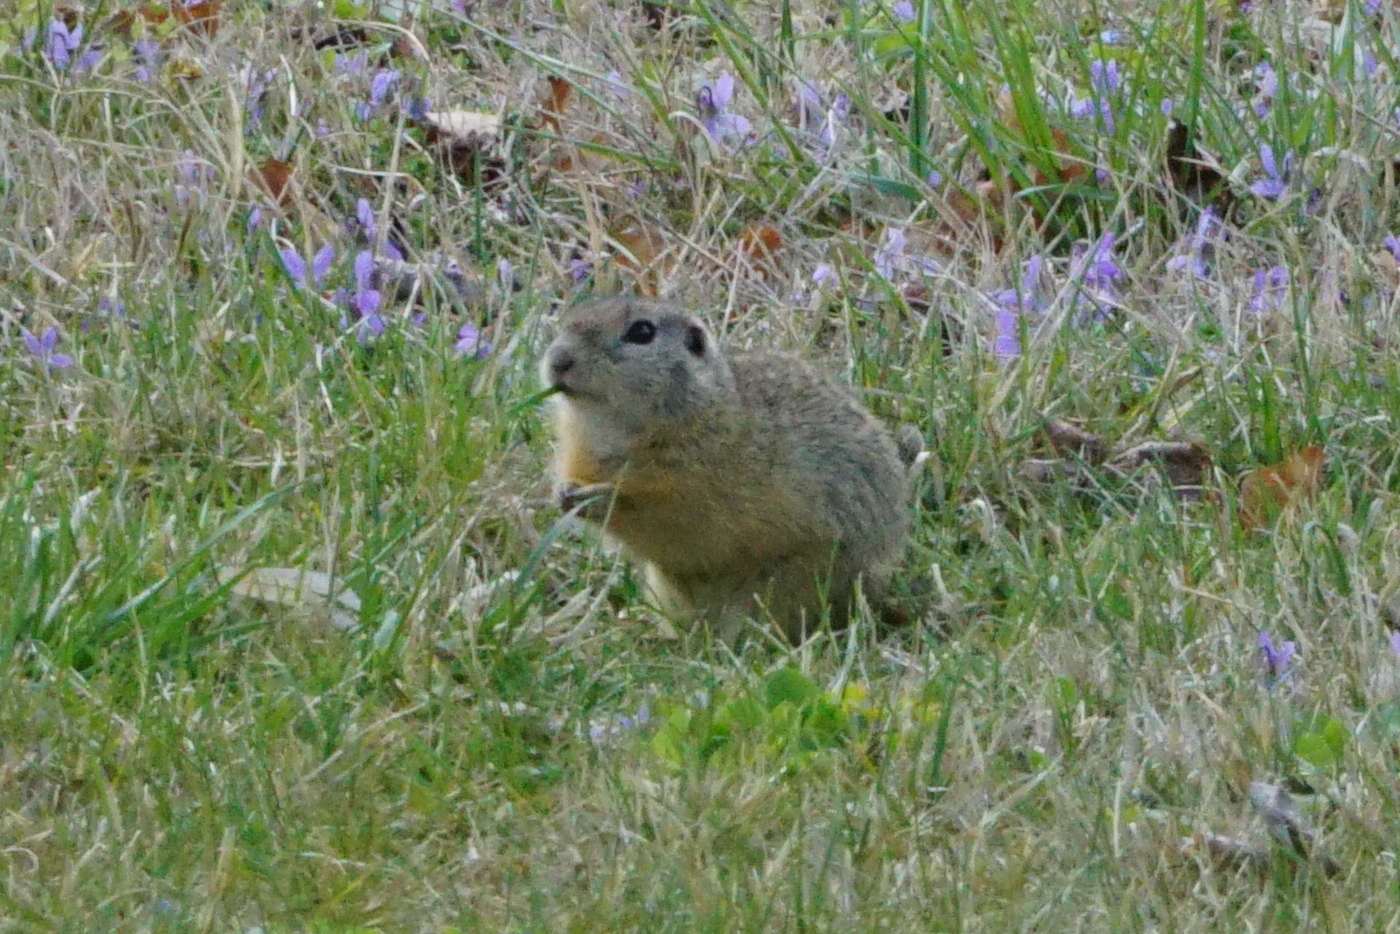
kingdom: Animalia
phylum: Chordata
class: Mammalia
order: Rodentia
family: Sciuridae
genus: Spermophilus
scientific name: Spermophilus citellus
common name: European ground squirrel
